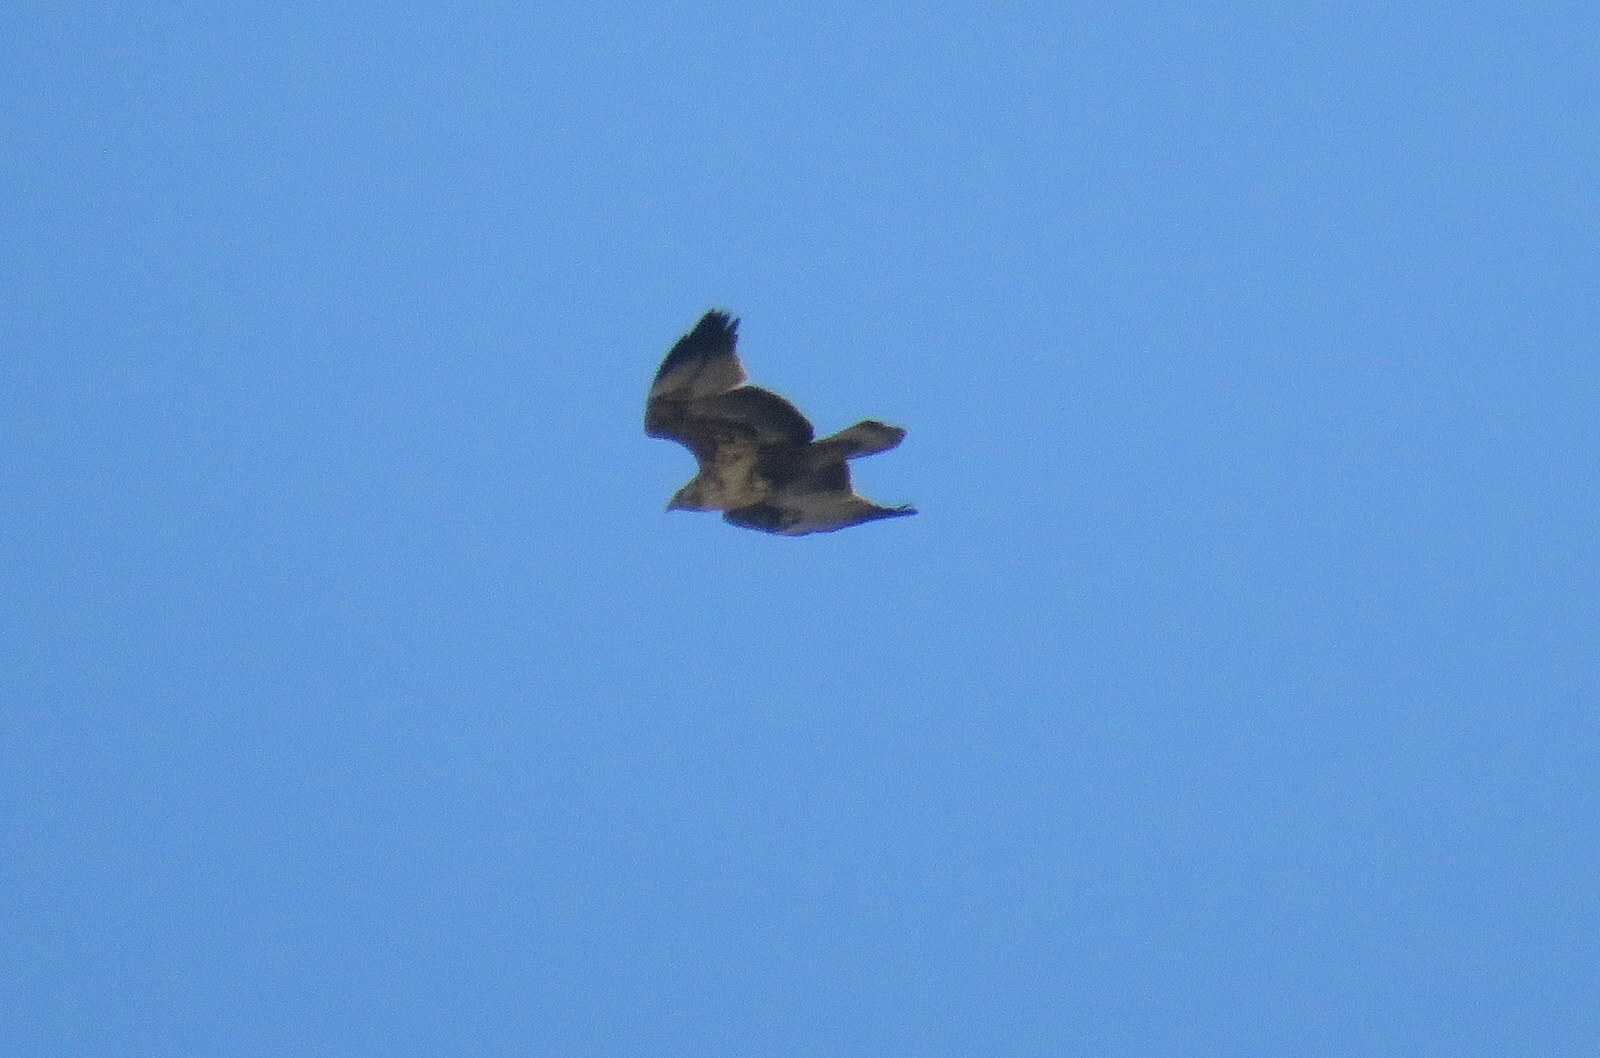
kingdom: Animalia
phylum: Chordata
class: Aves
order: Accipitriformes
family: Accipitridae
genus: Geranoaetus
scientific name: Geranoaetus melanoleucus
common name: Black-chested buzzard-eagle
